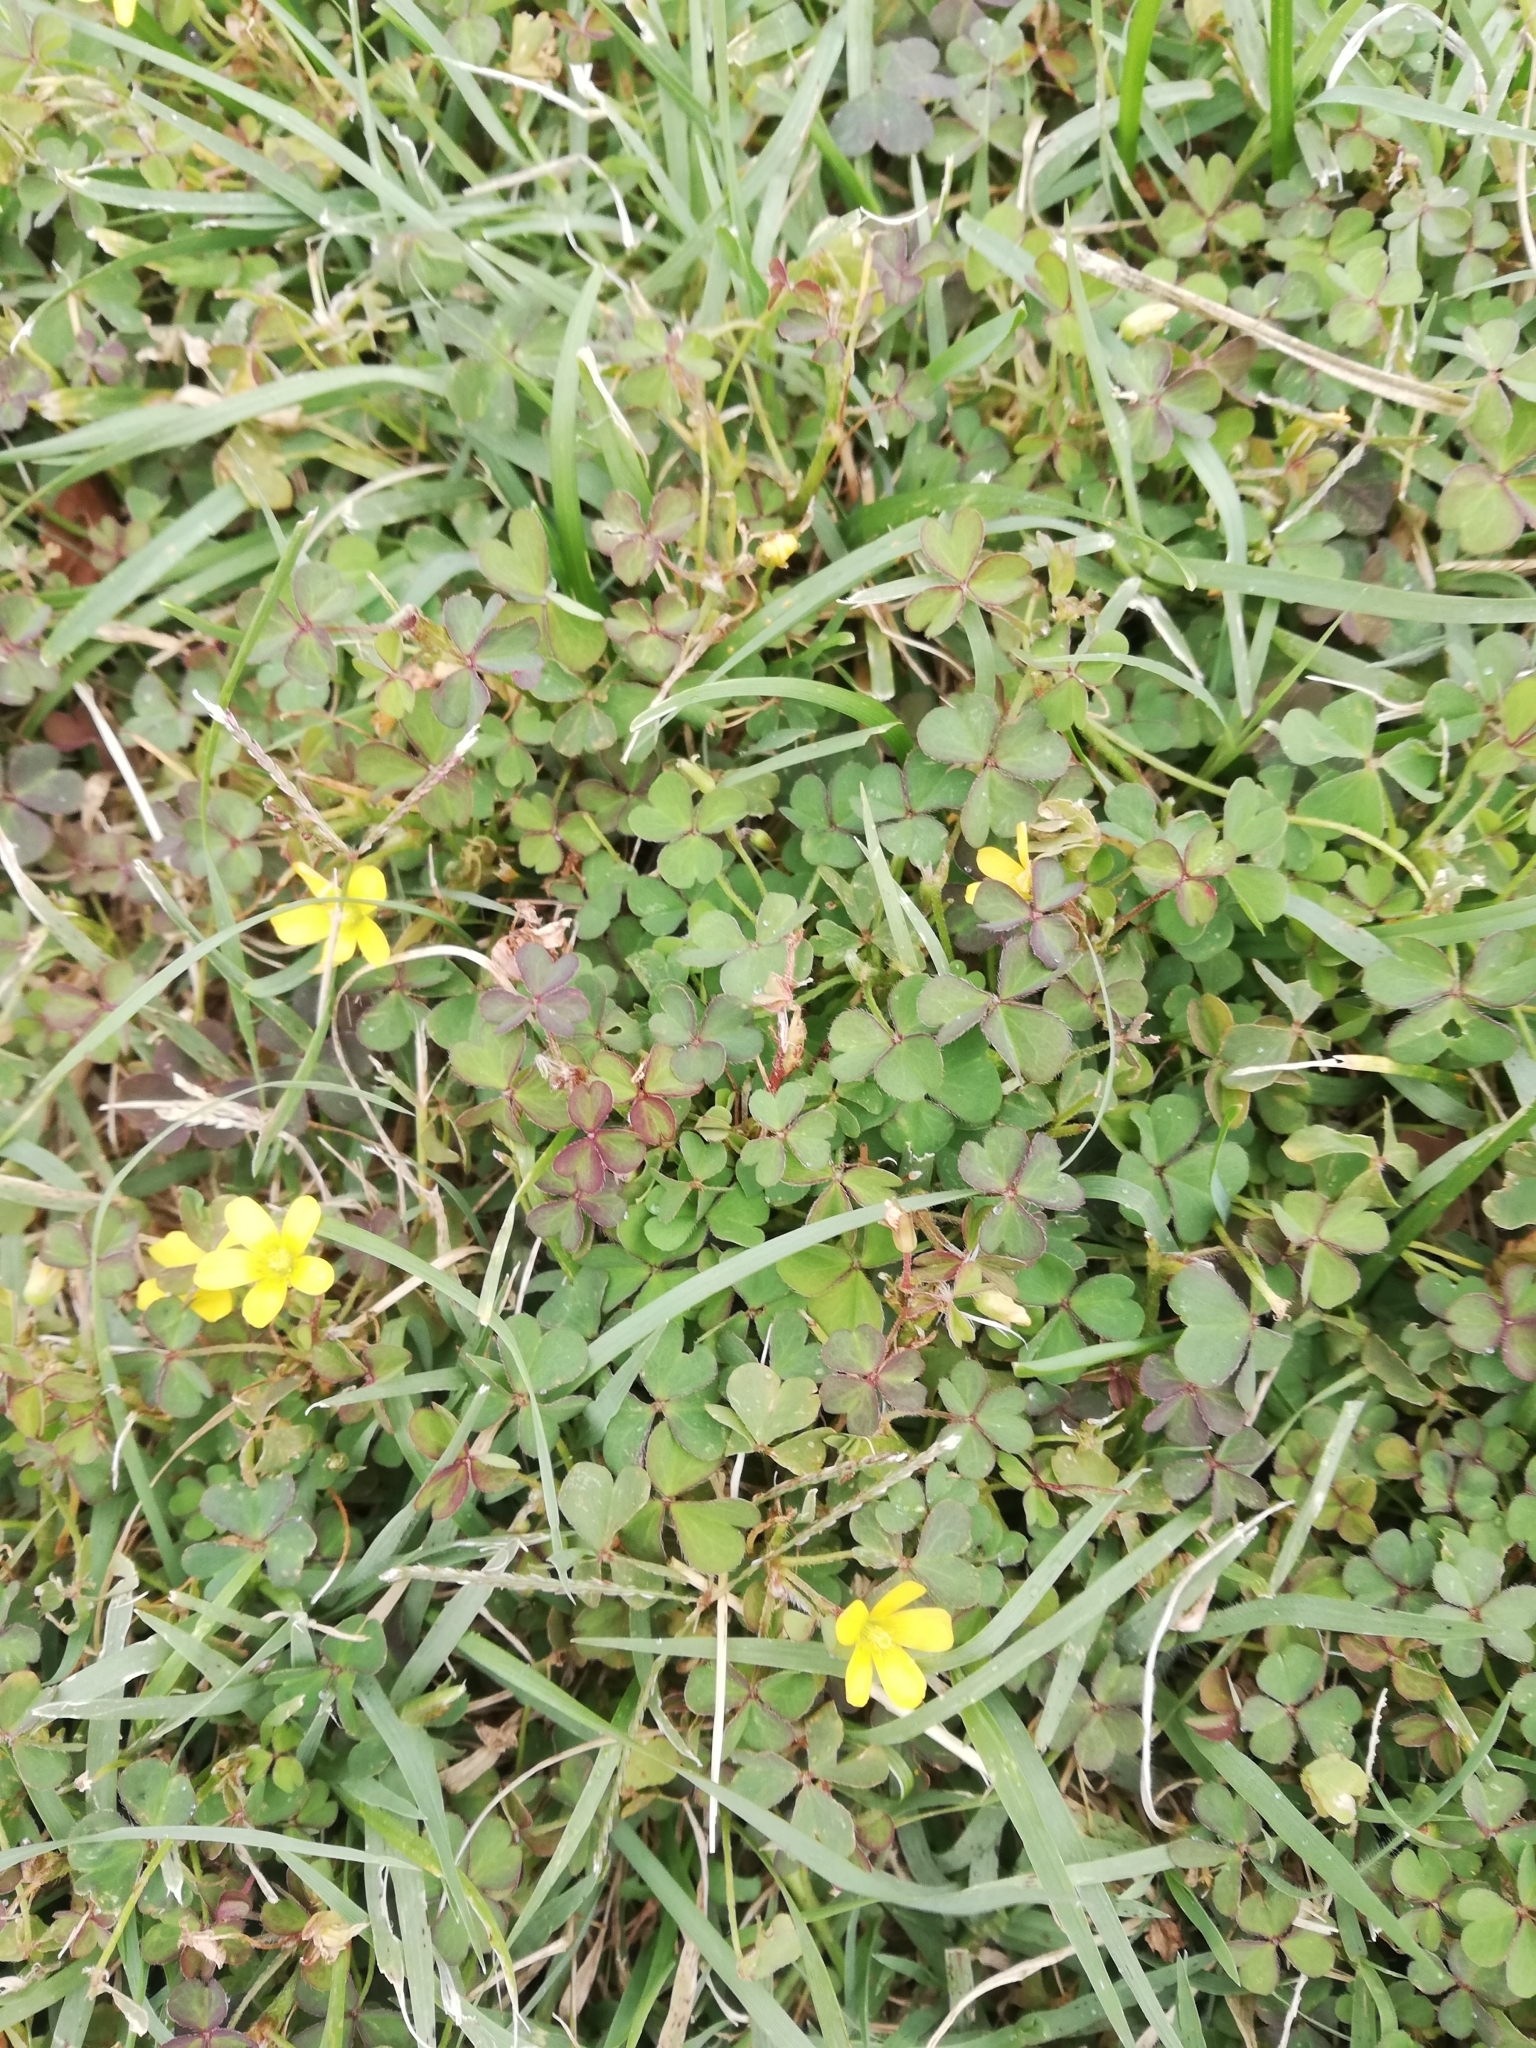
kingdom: Plantae
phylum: Tracheophyta
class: Magnoliopsida
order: Oxalidales
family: Oxalidaceae
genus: Oxalis
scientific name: Oxalis corniculata
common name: Procumbent yellow-sorrel
